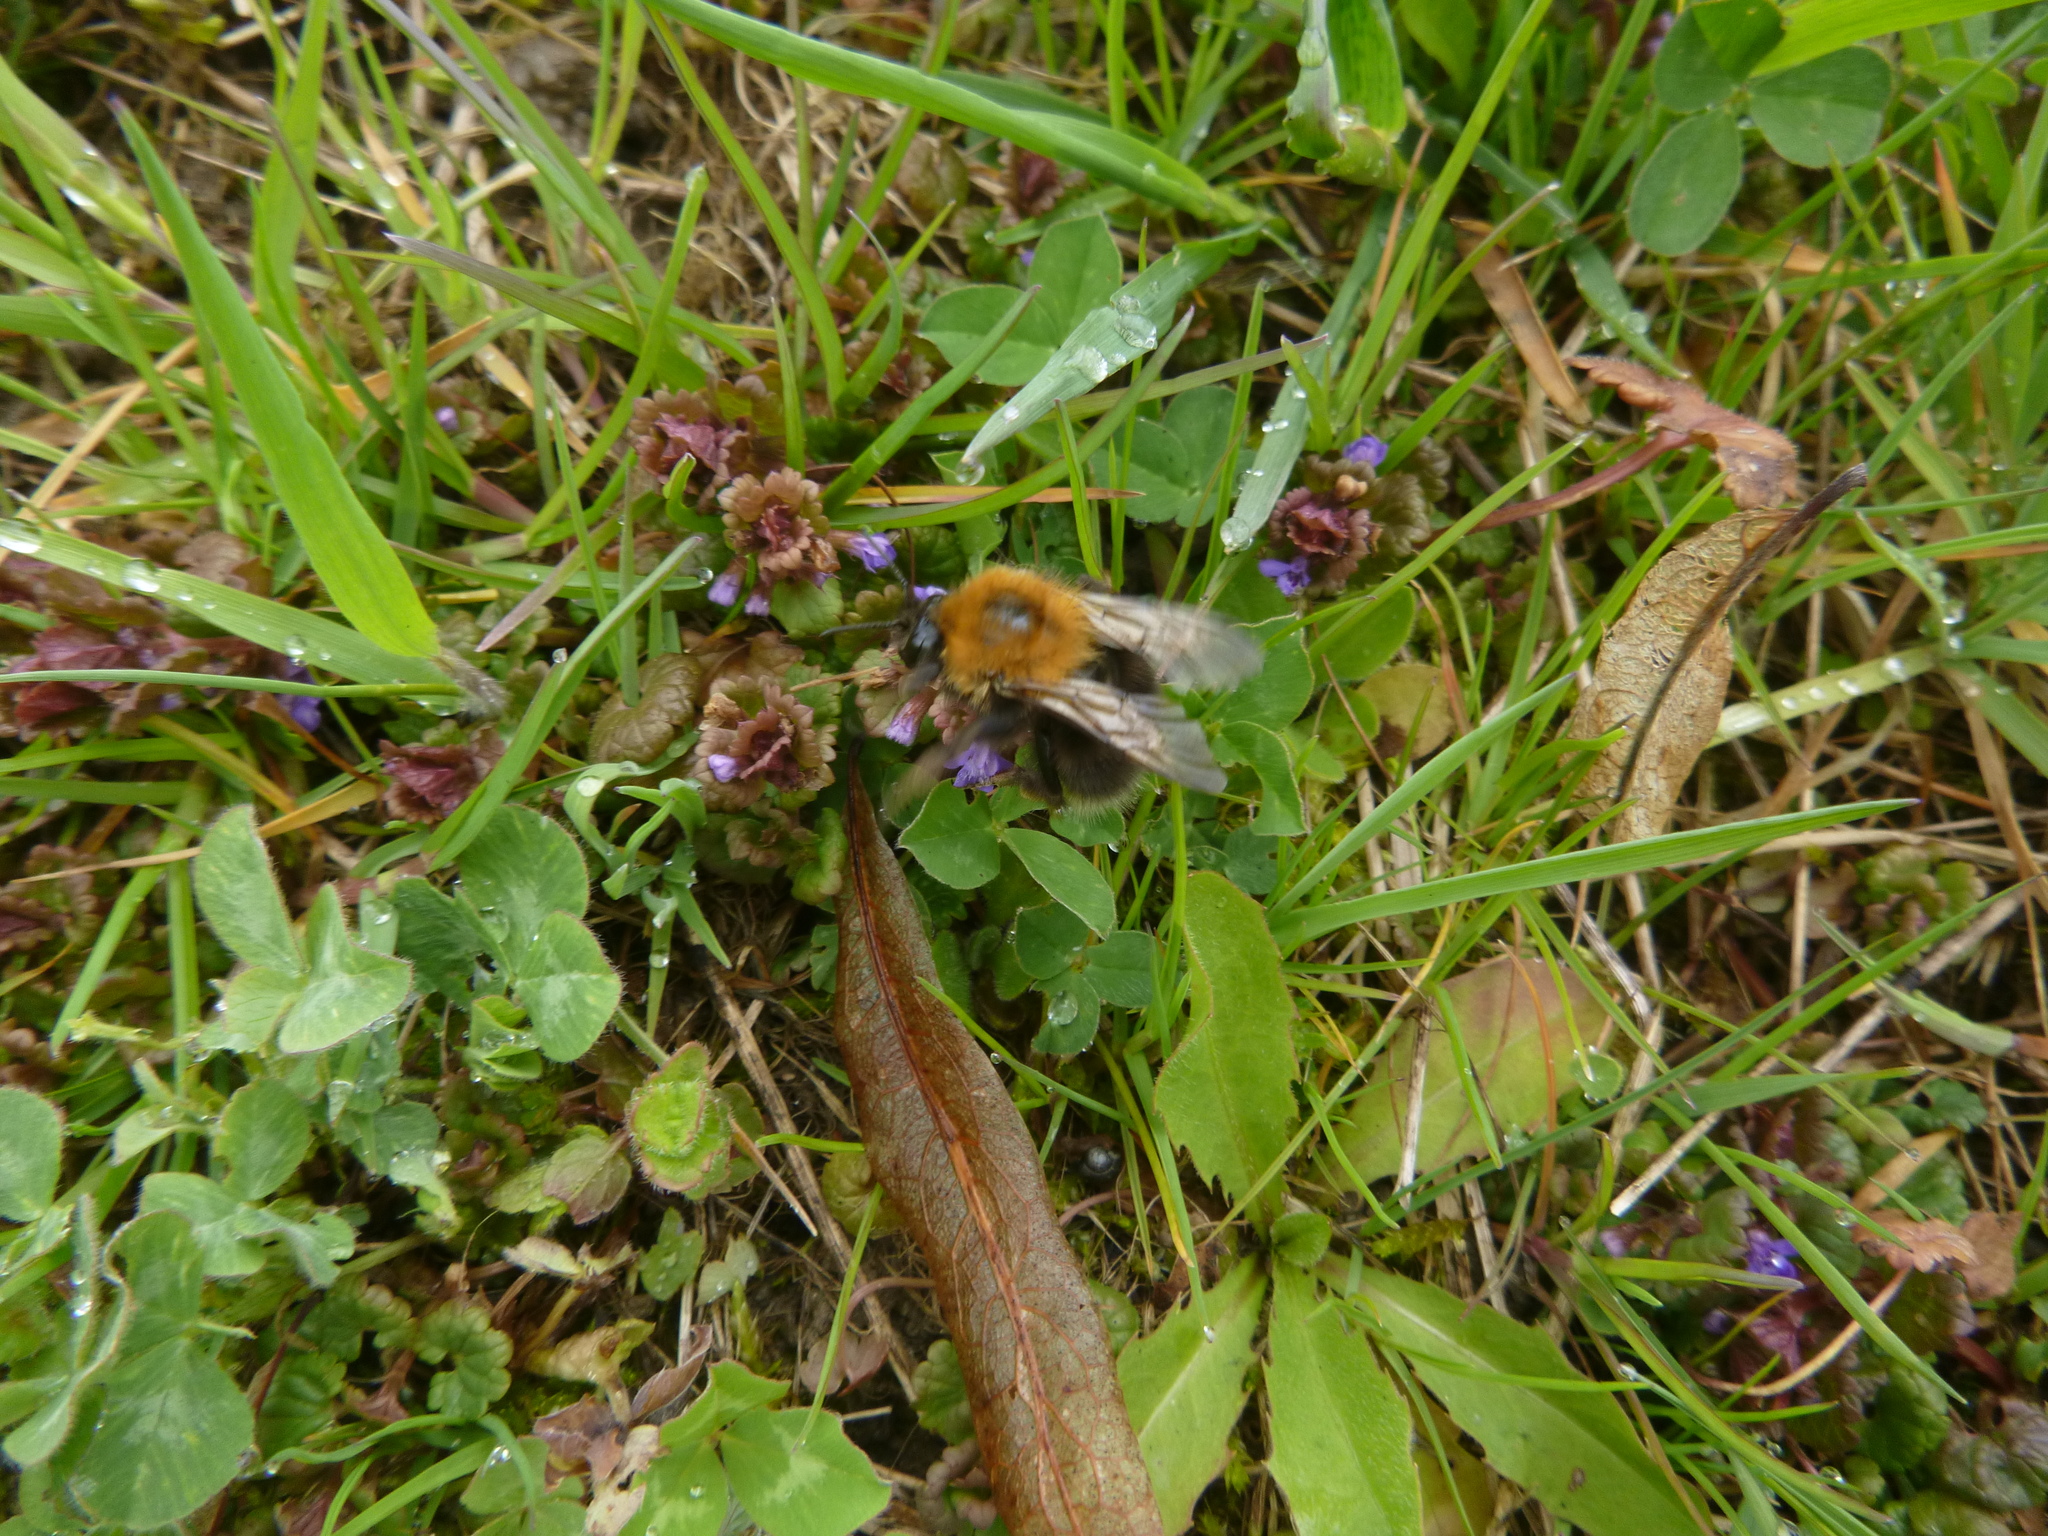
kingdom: Animalia
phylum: Arthropoda
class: Insecta
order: Hymenoptera
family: Apidae
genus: Bombus
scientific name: Bombus hypnorum
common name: New garden bumblebee
